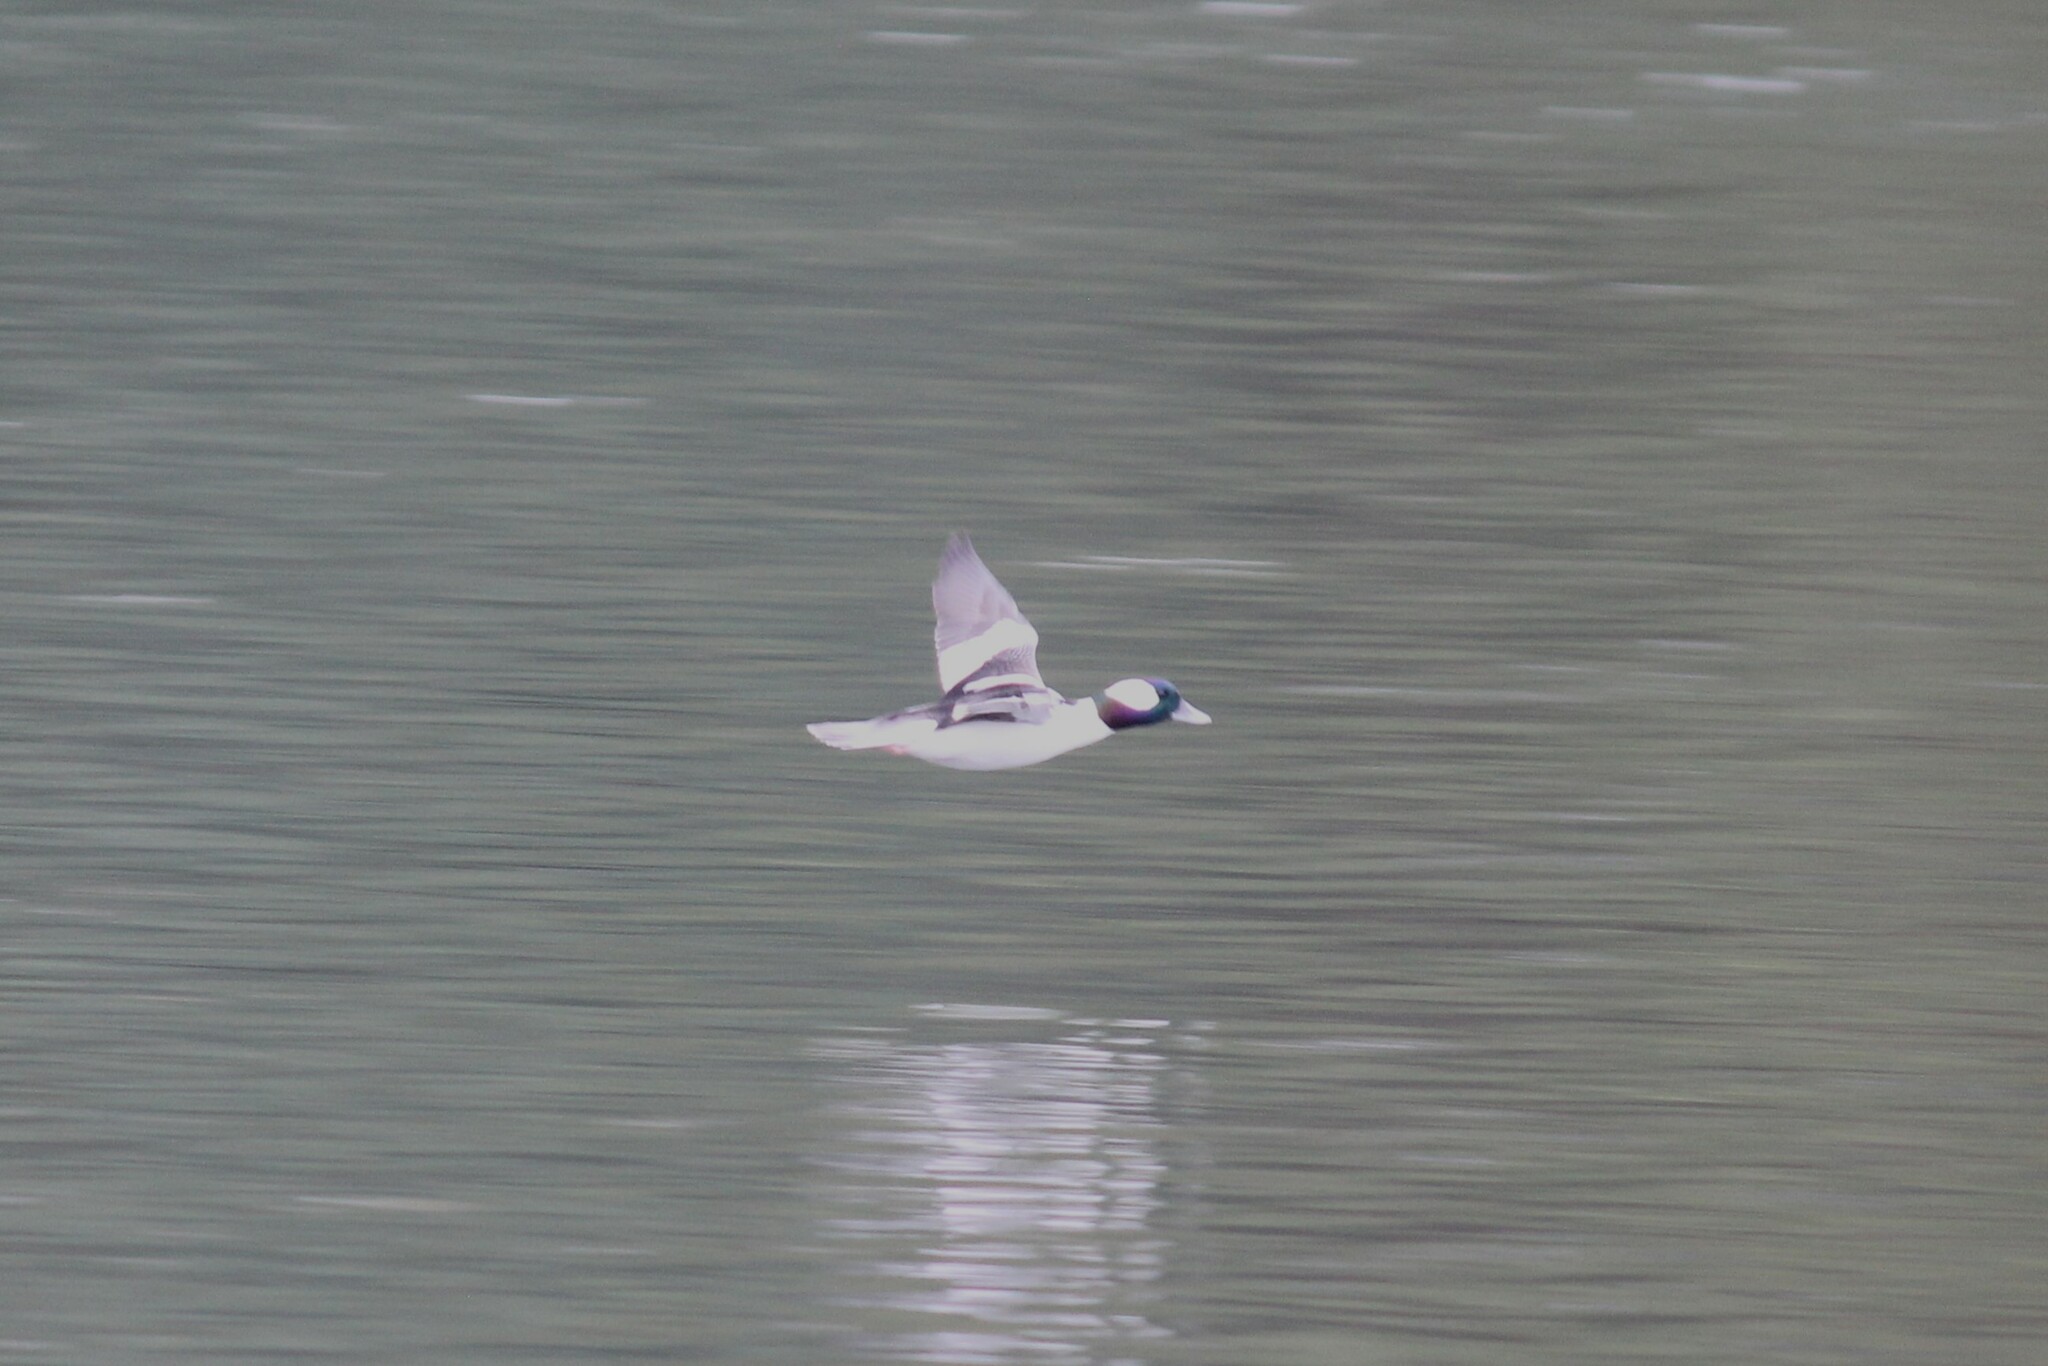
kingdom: Animalia
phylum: Chordata
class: Aves
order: Anseriformes
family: Anatidae
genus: Bucephala
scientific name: Bucephala albeola
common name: Bufflehead
